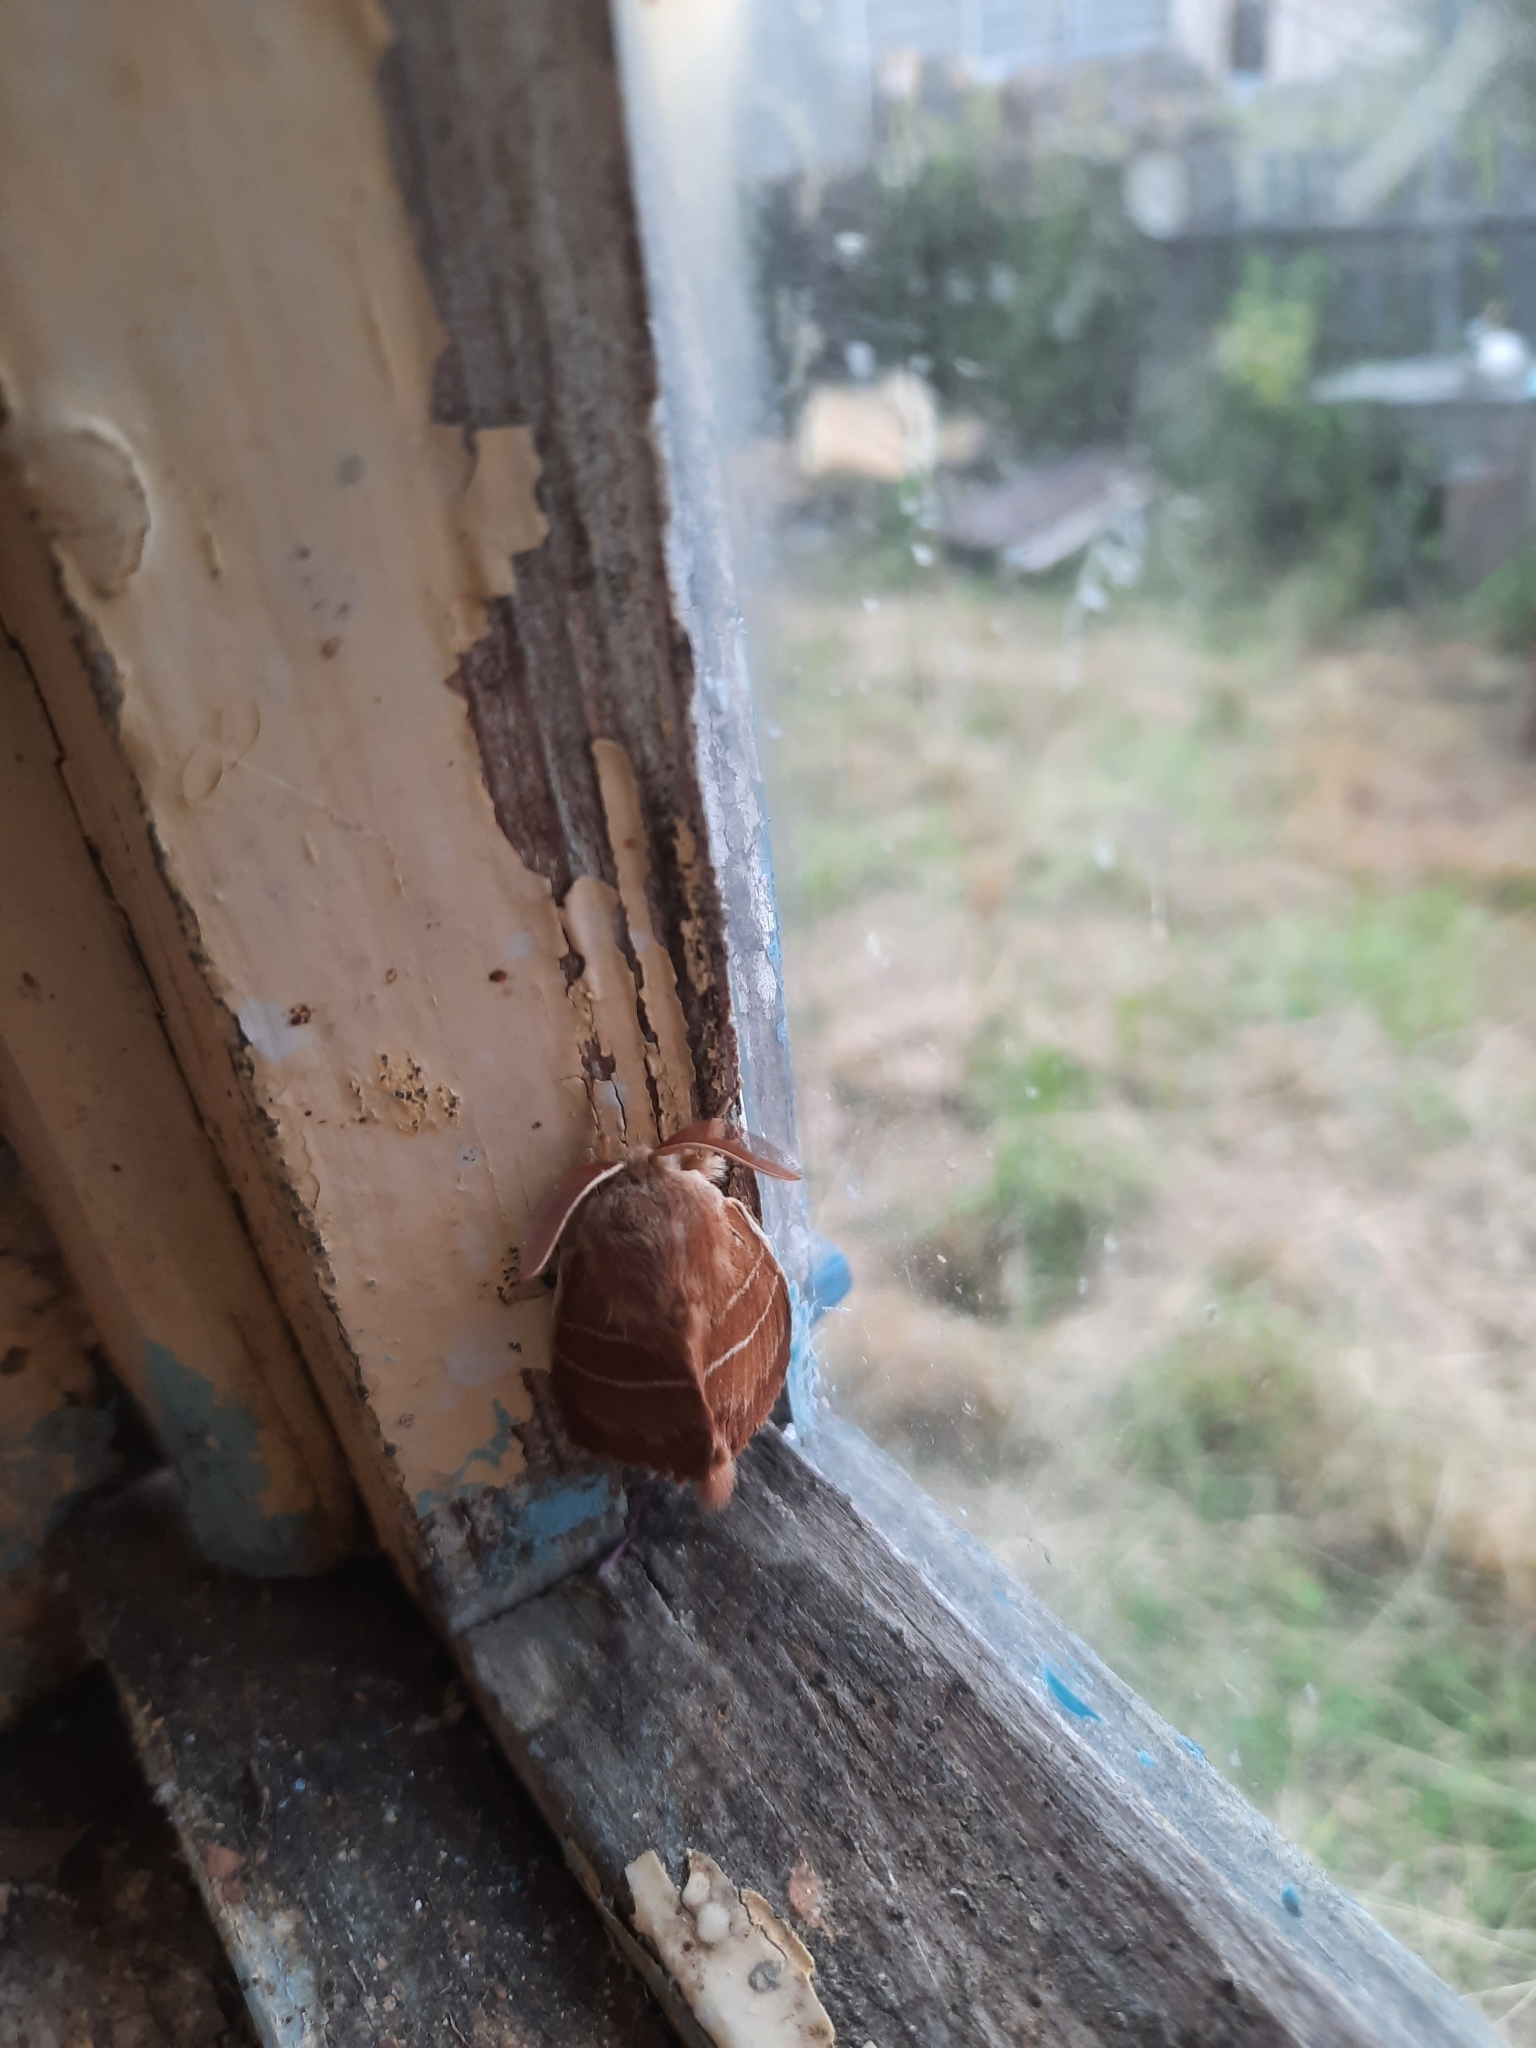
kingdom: Animalia
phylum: Arthropoda
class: Insecta
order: Lepidoptera
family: Lasiocampidae
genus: Macrothylacia
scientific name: Macrothylacia rubi
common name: Fox moth
